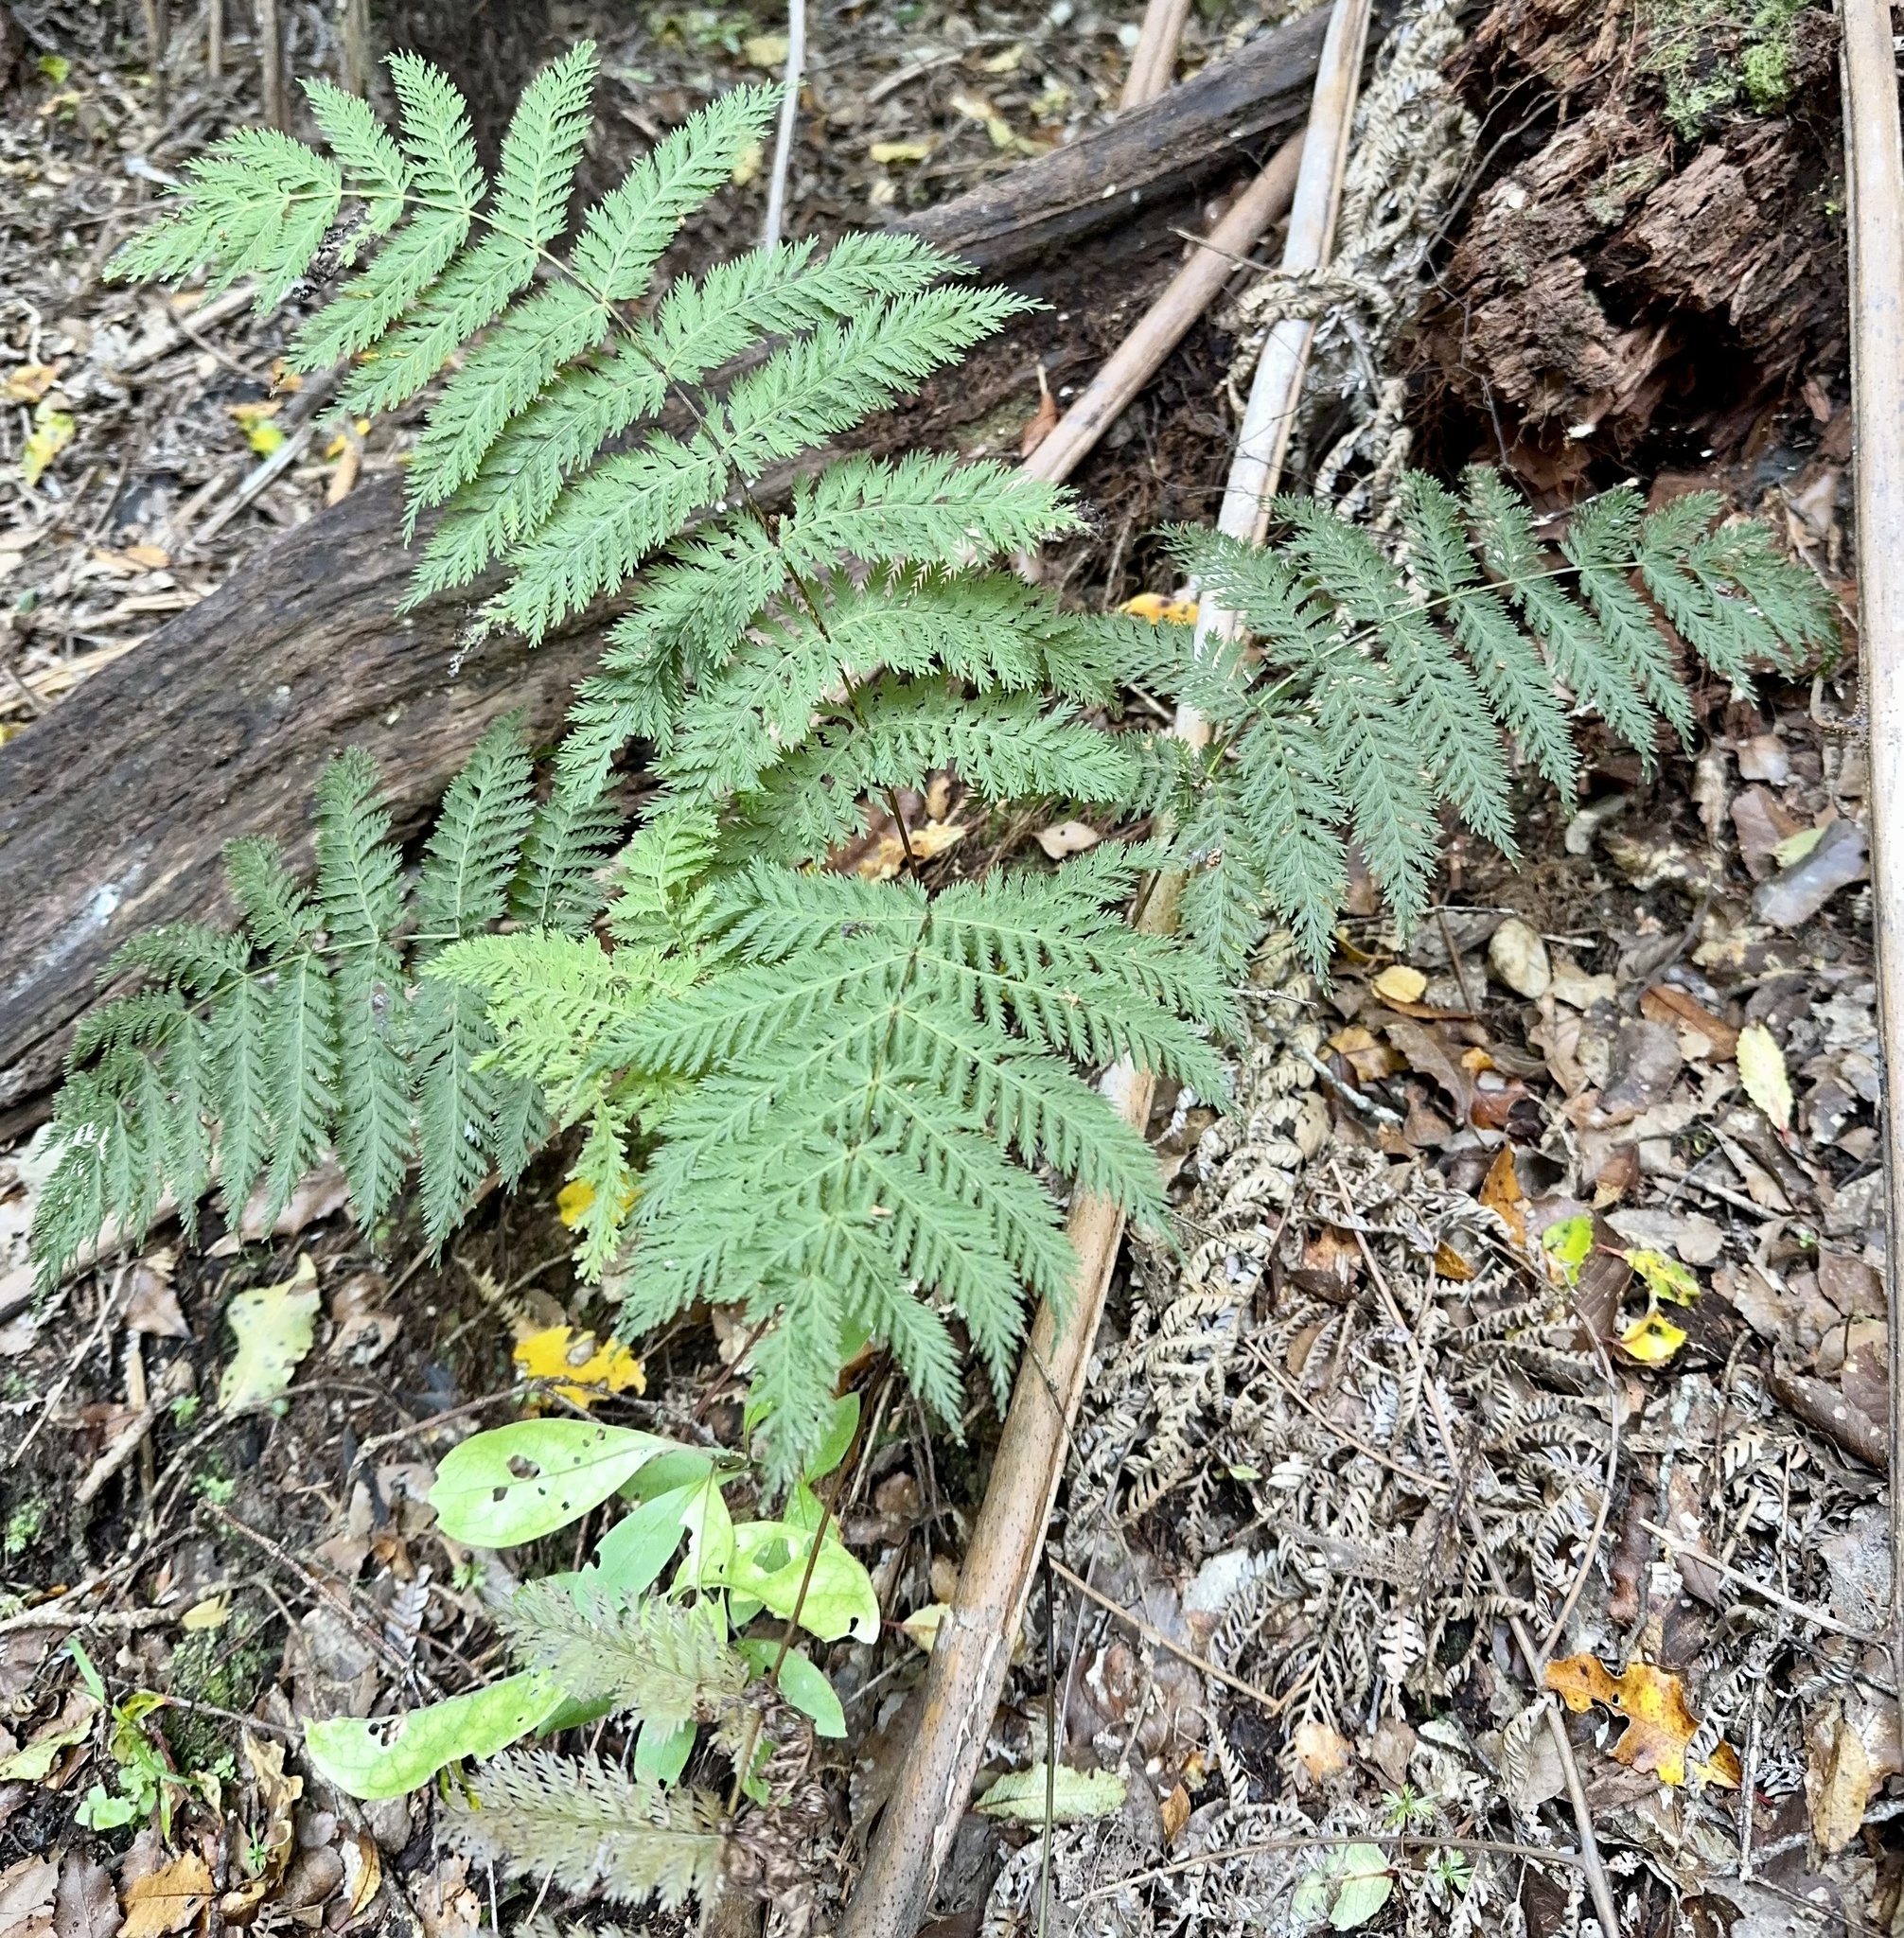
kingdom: Plantae
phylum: Tracheophyta
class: Polypodiopsida
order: Osmundales
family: Osmundaceae
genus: Leptopteris
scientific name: Leptopteris hymenophylloides
